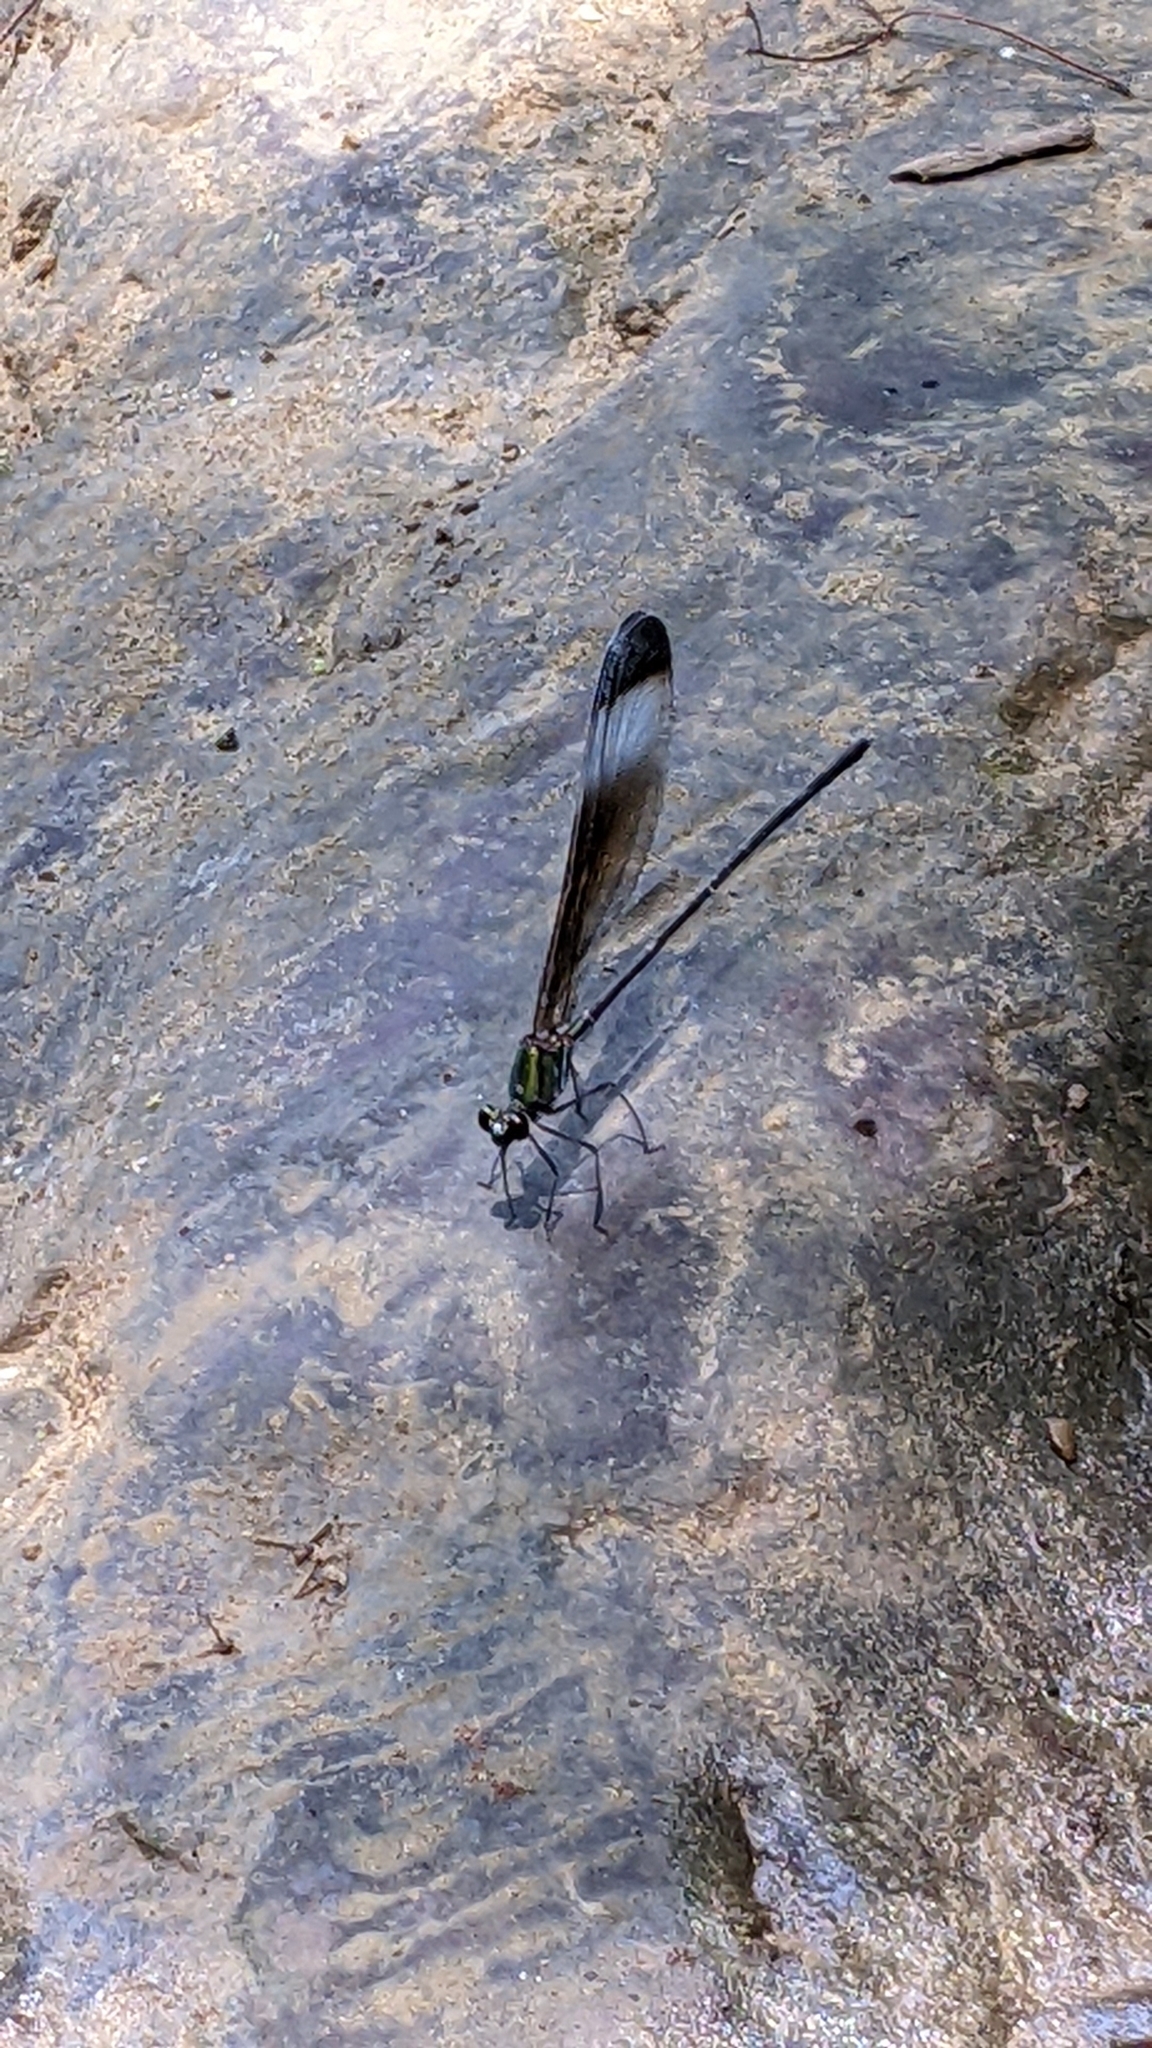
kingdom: Animalia
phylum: Arthropoda
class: Insecta
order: Odonata
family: Calopterygidae
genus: Psolodesmus
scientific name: Psolodesmus mandarinus
